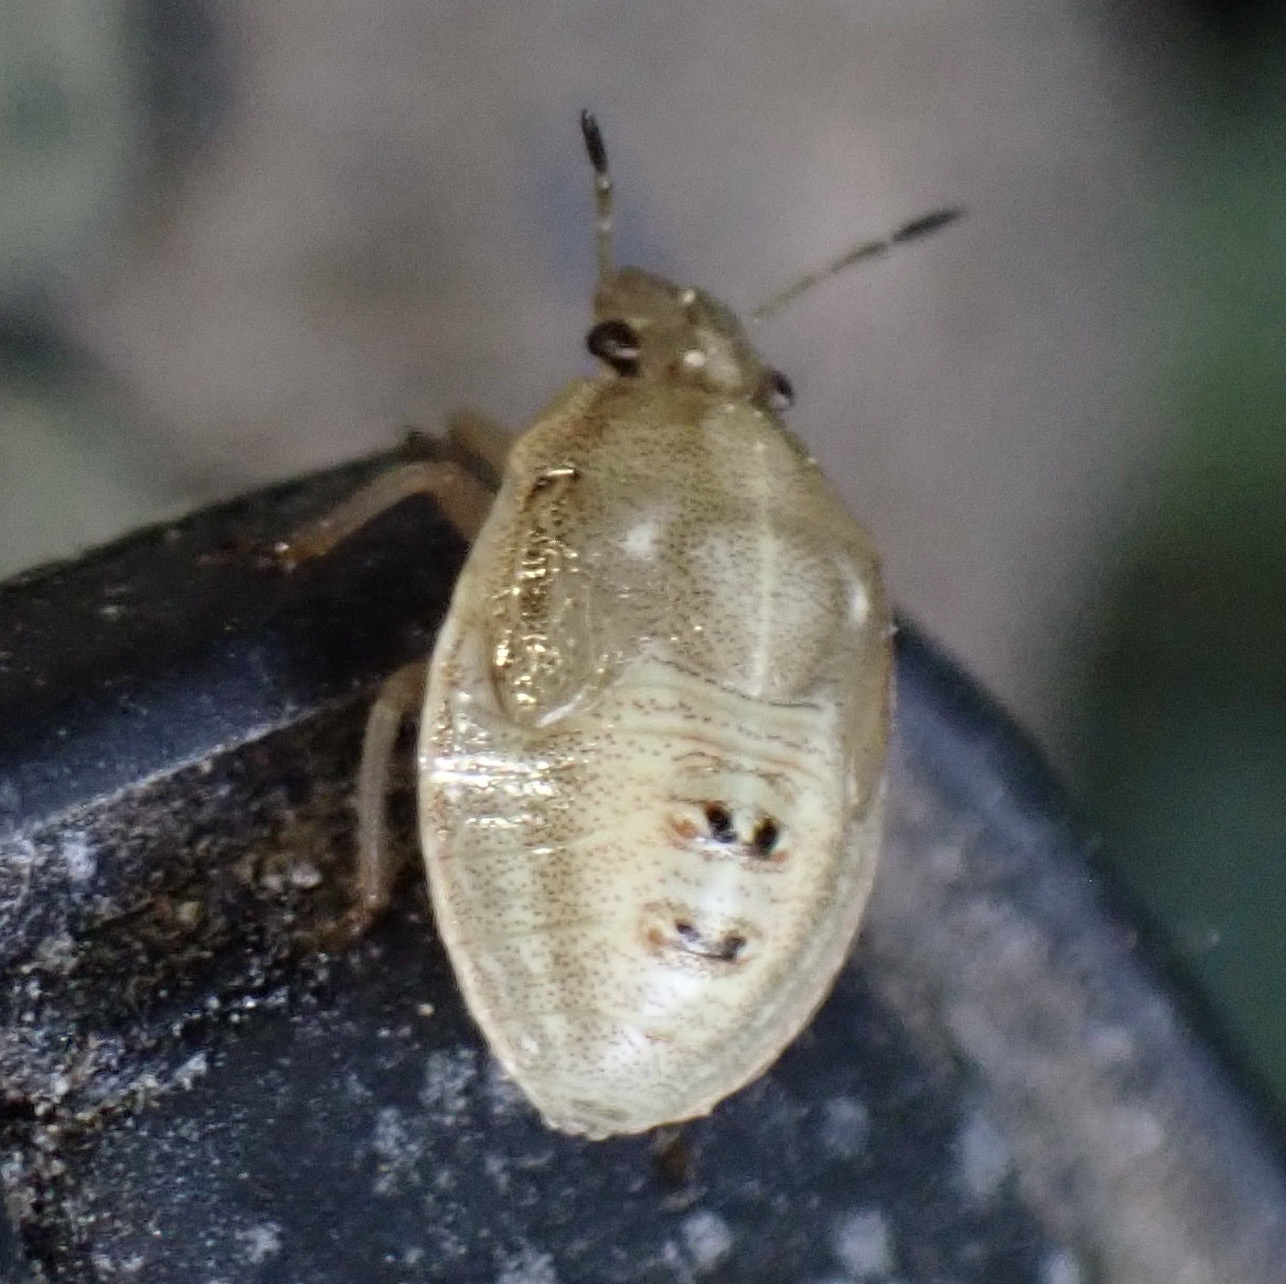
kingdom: Animalia
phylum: Arthropoda
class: Insecta
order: Hemiptera
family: Pentatomidae
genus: Eysarcoris
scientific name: Eysarcoris ventralis
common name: White-spotted stink bug
